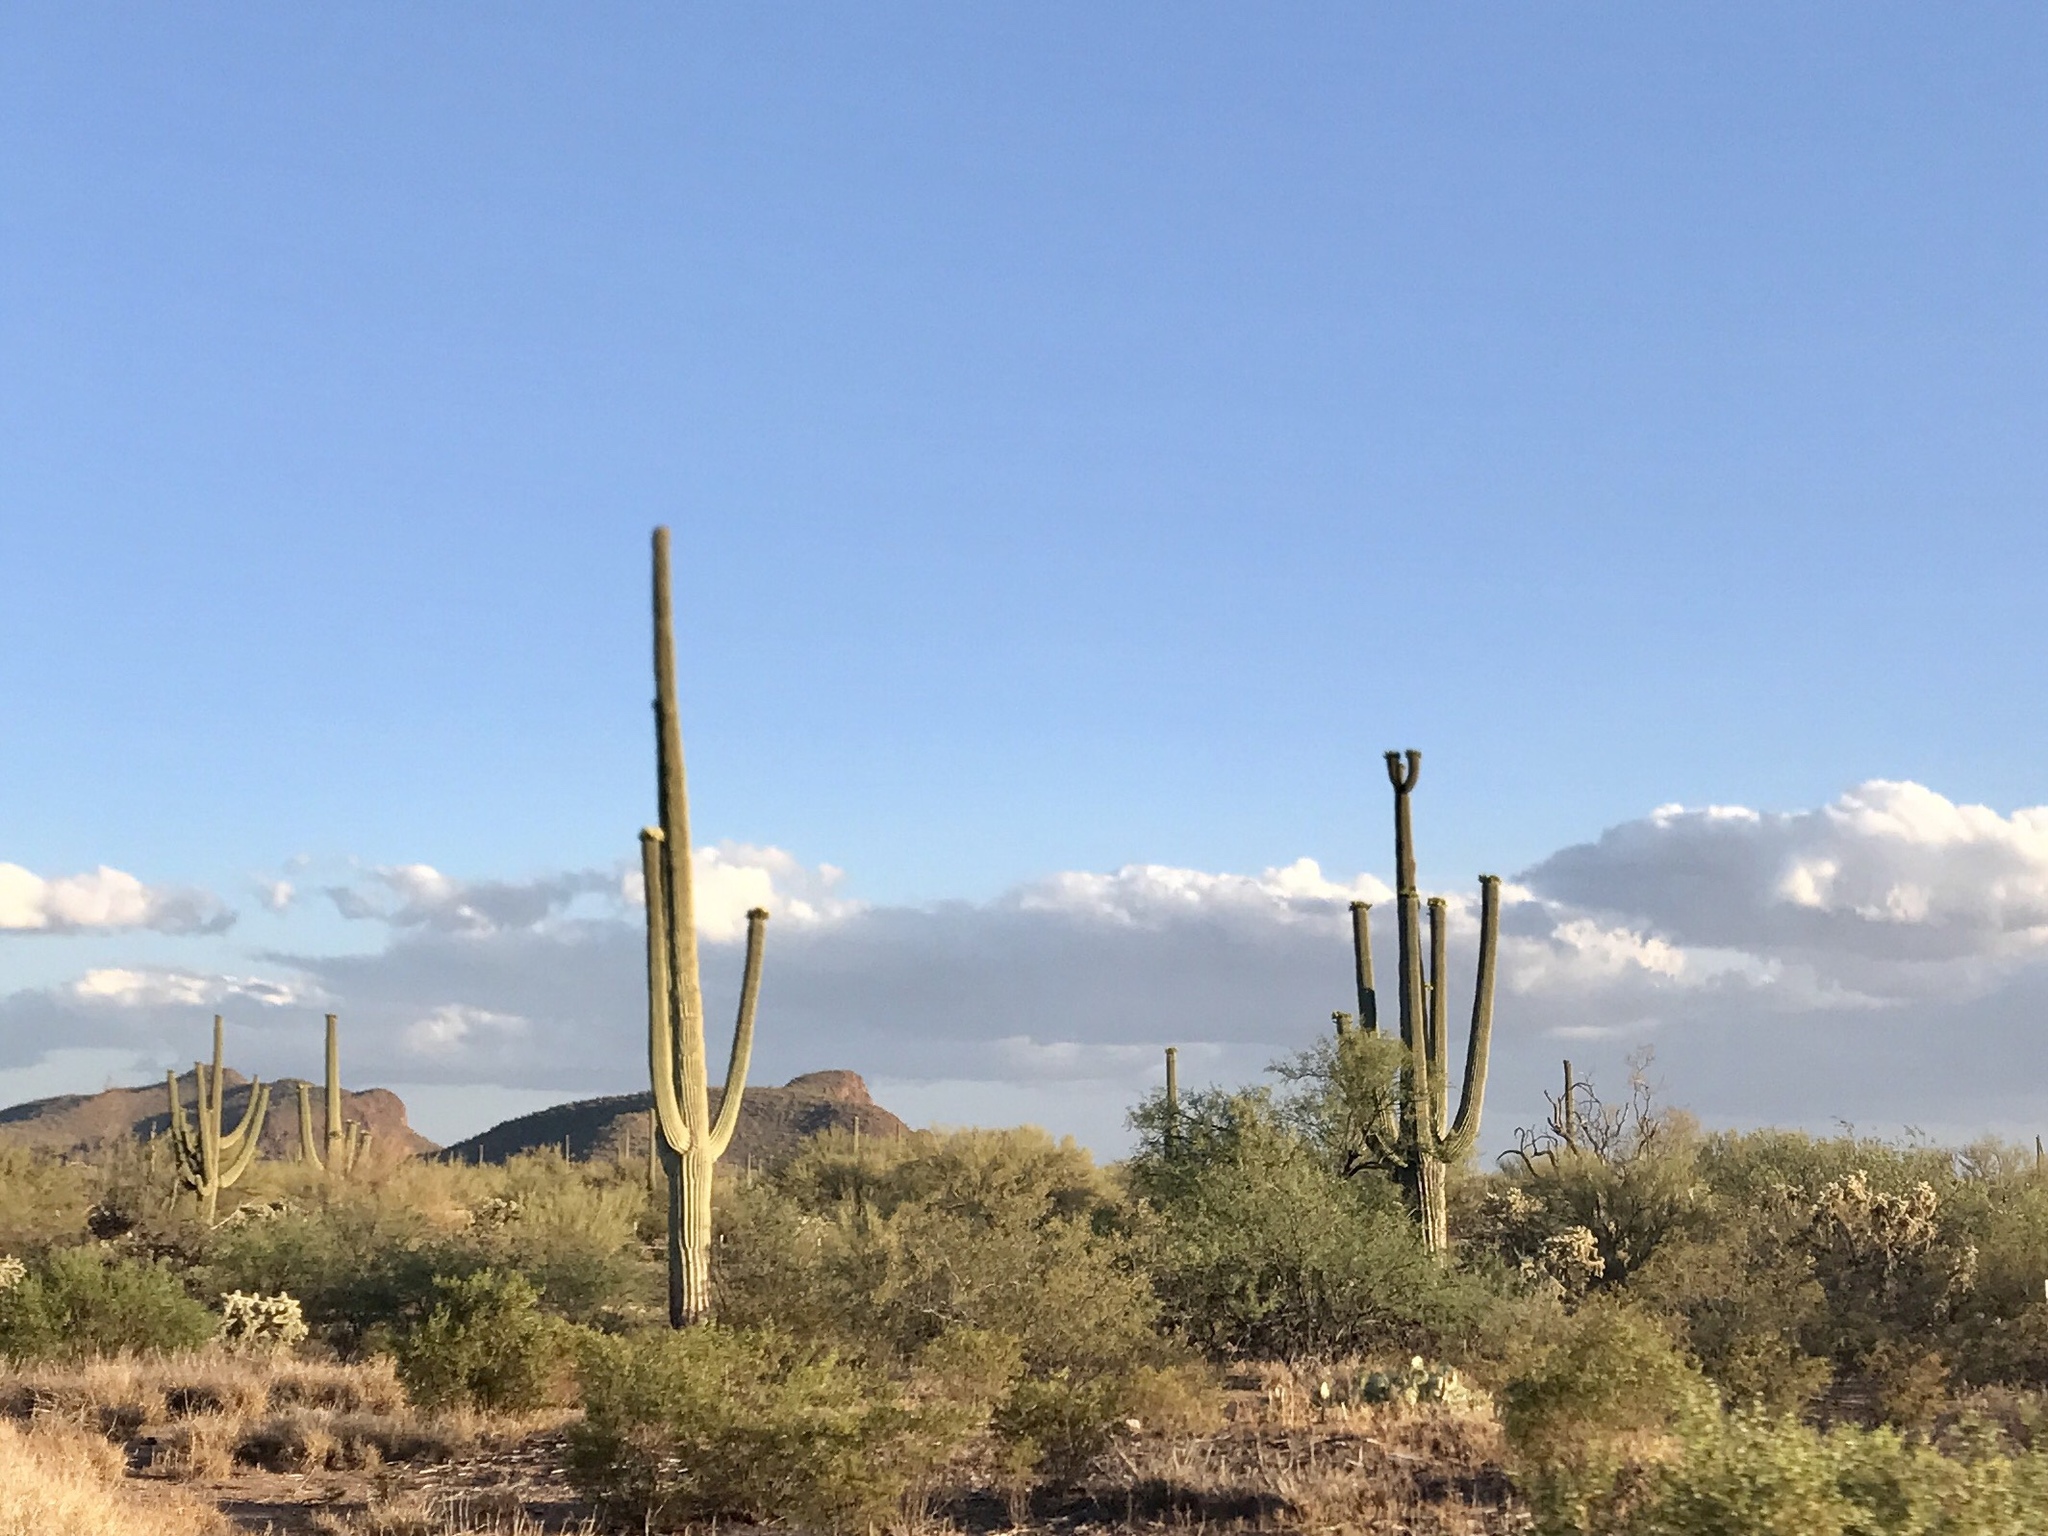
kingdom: Plantae
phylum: Tracheophyta
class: Magnoliopsida
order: Caryophyllales
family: Cactaceae
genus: Carnegiea
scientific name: Carnegiea gigantea
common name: Saguaro
